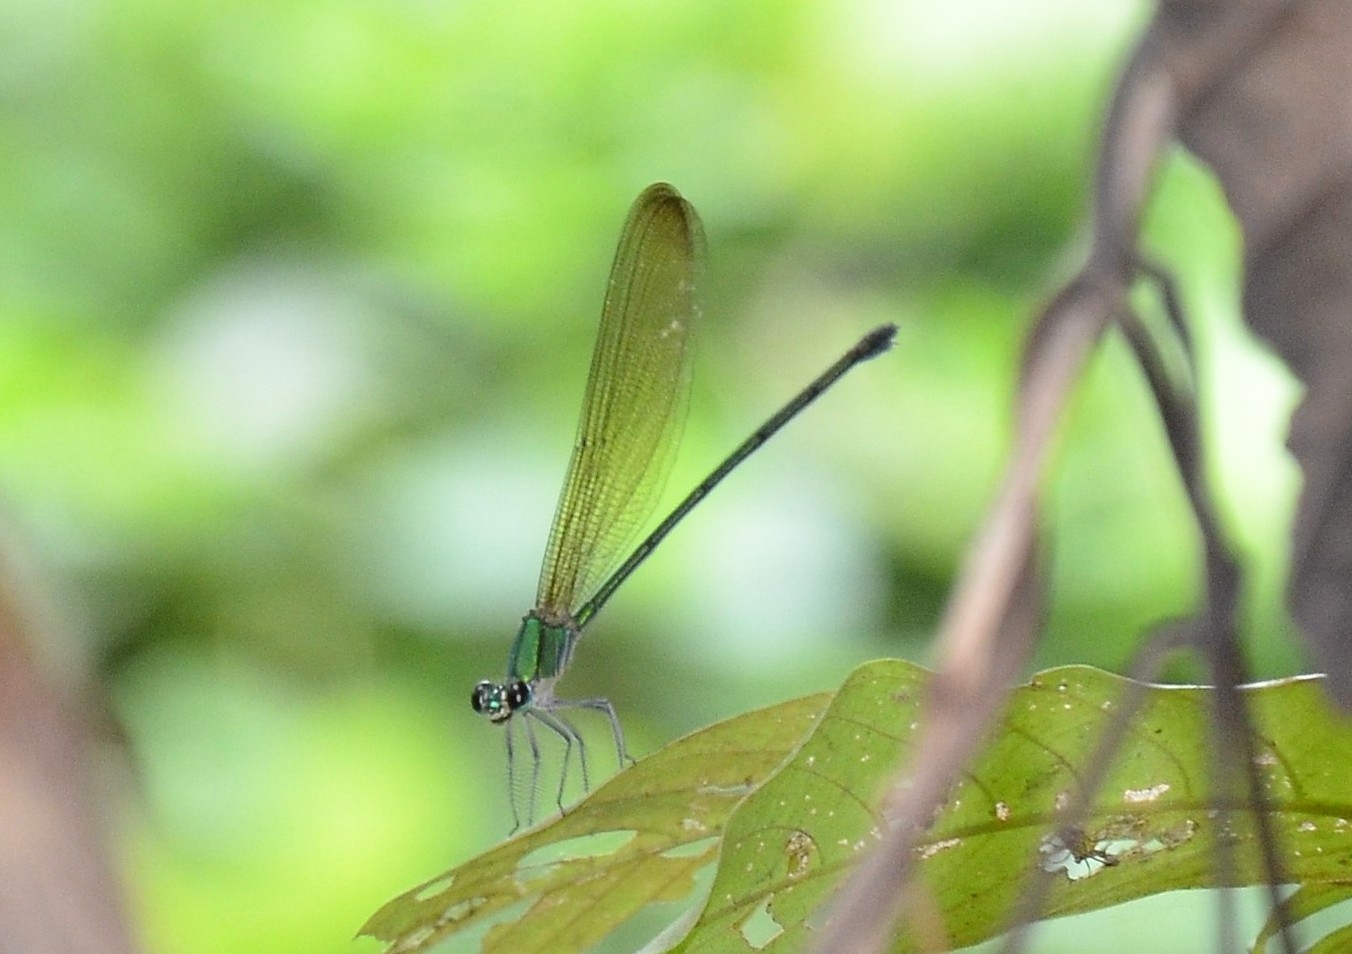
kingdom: Animalia
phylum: Arthropoda
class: Insecta
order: Odonata
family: Calopterygidae
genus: Vestalis
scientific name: Vestalis gracilis
